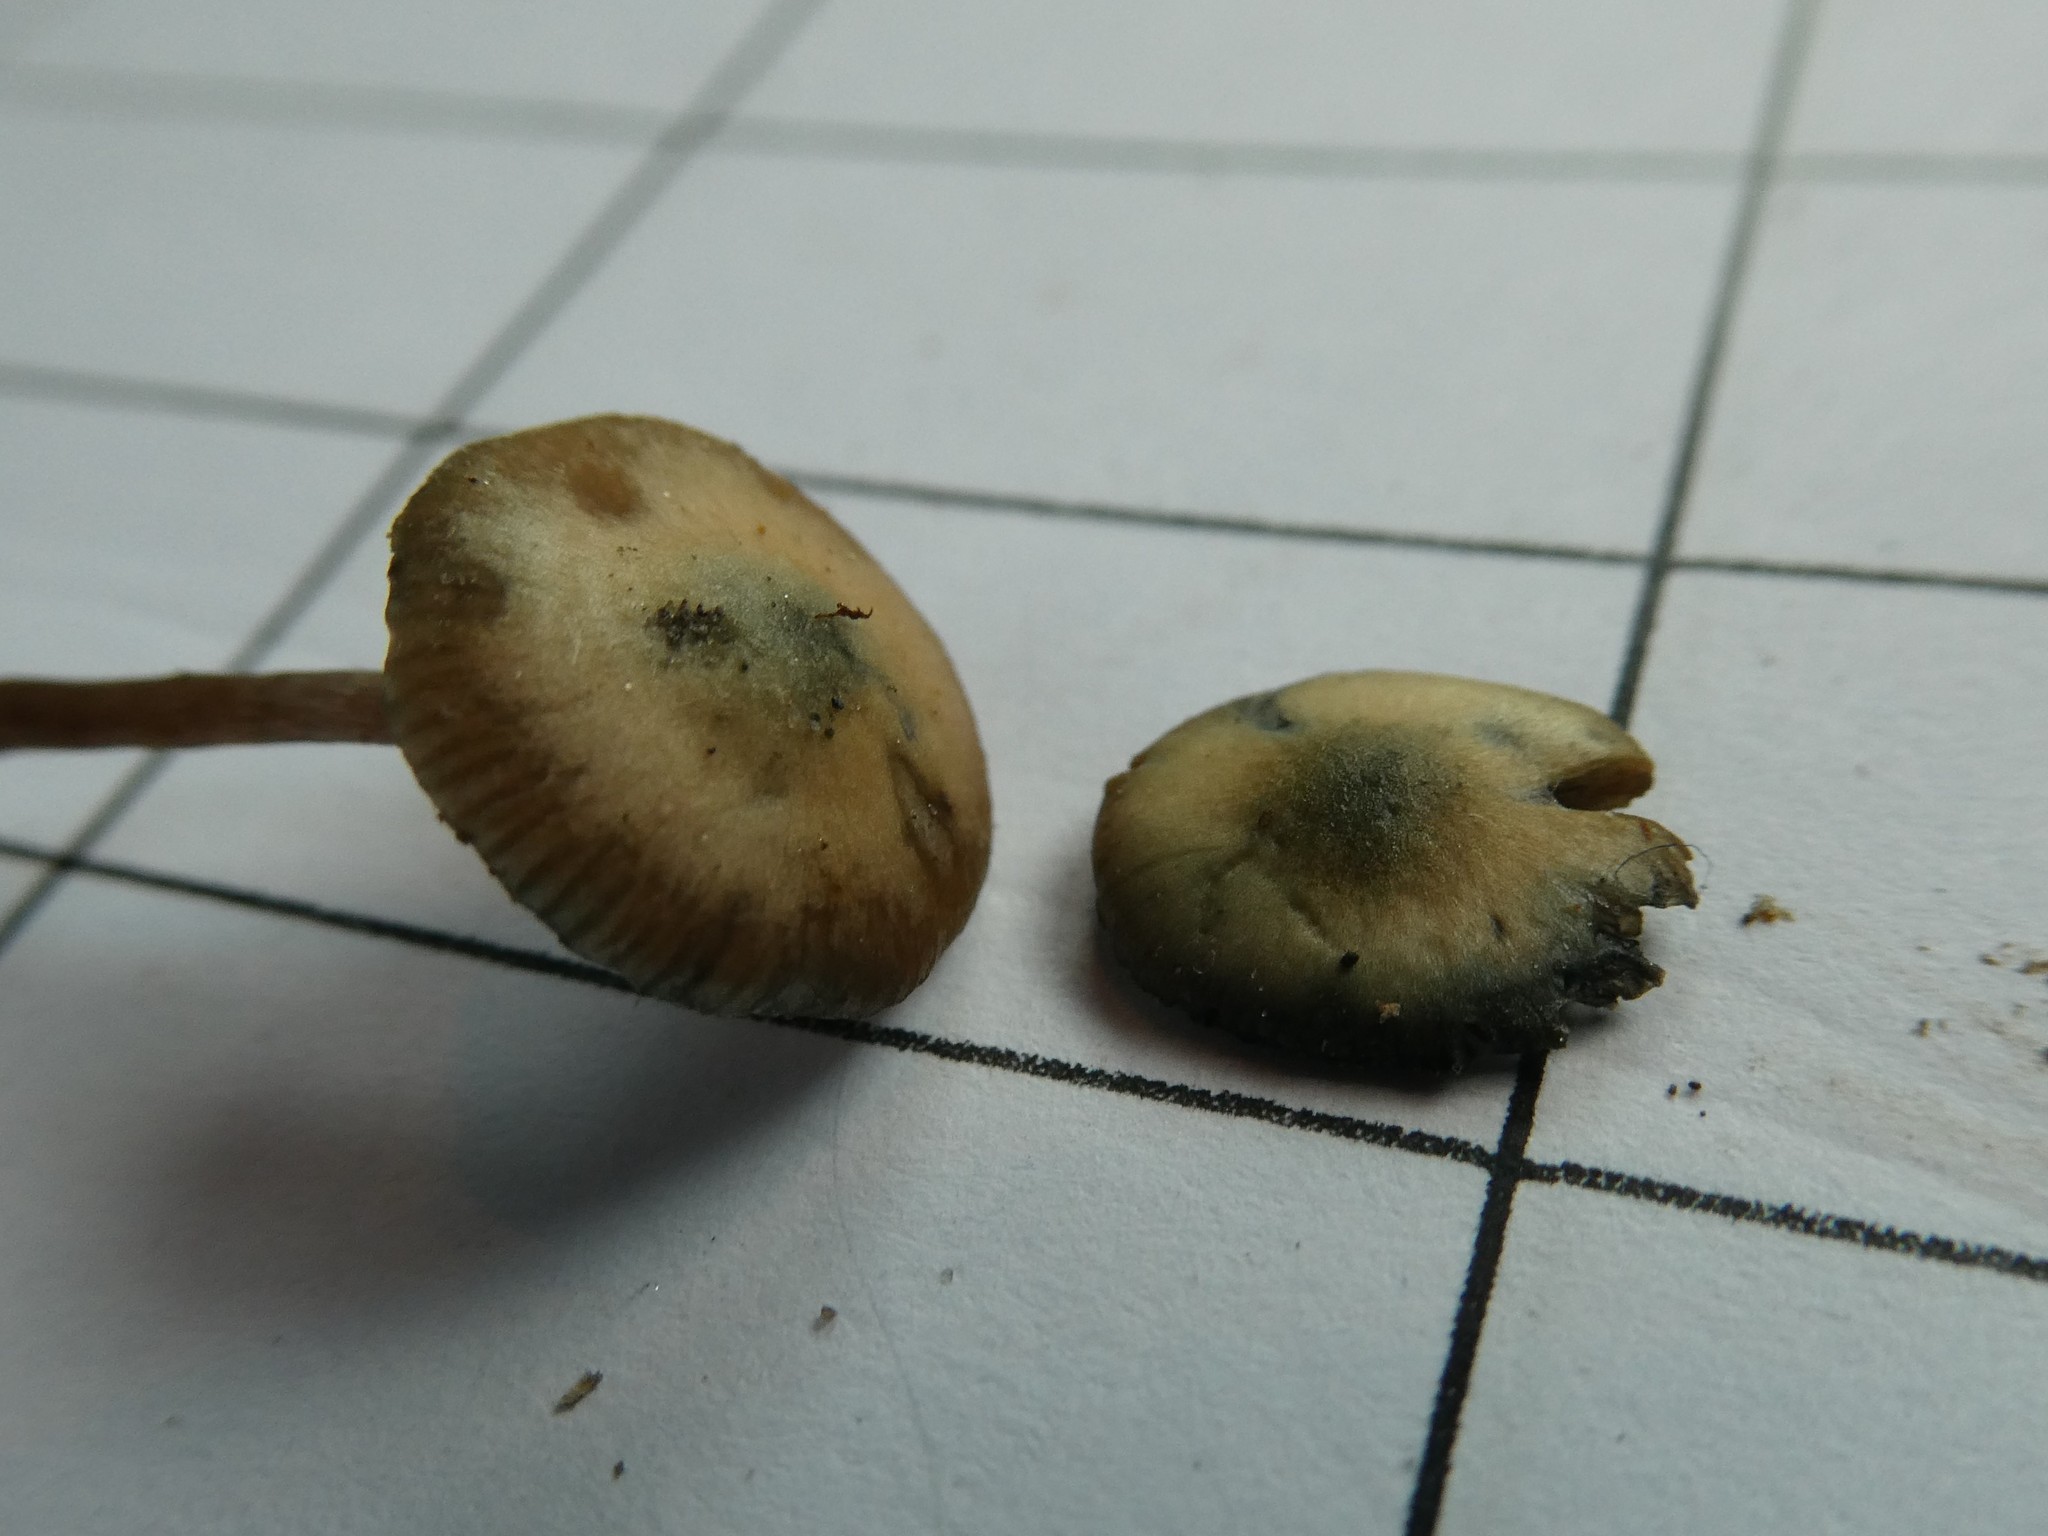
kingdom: Fungi
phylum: Basidiomycota
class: Agaricomycetes
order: Agaricales
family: Hymenogastraceae
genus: Psilocybe
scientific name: Psilocybe caerulipes
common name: Blue-foot
